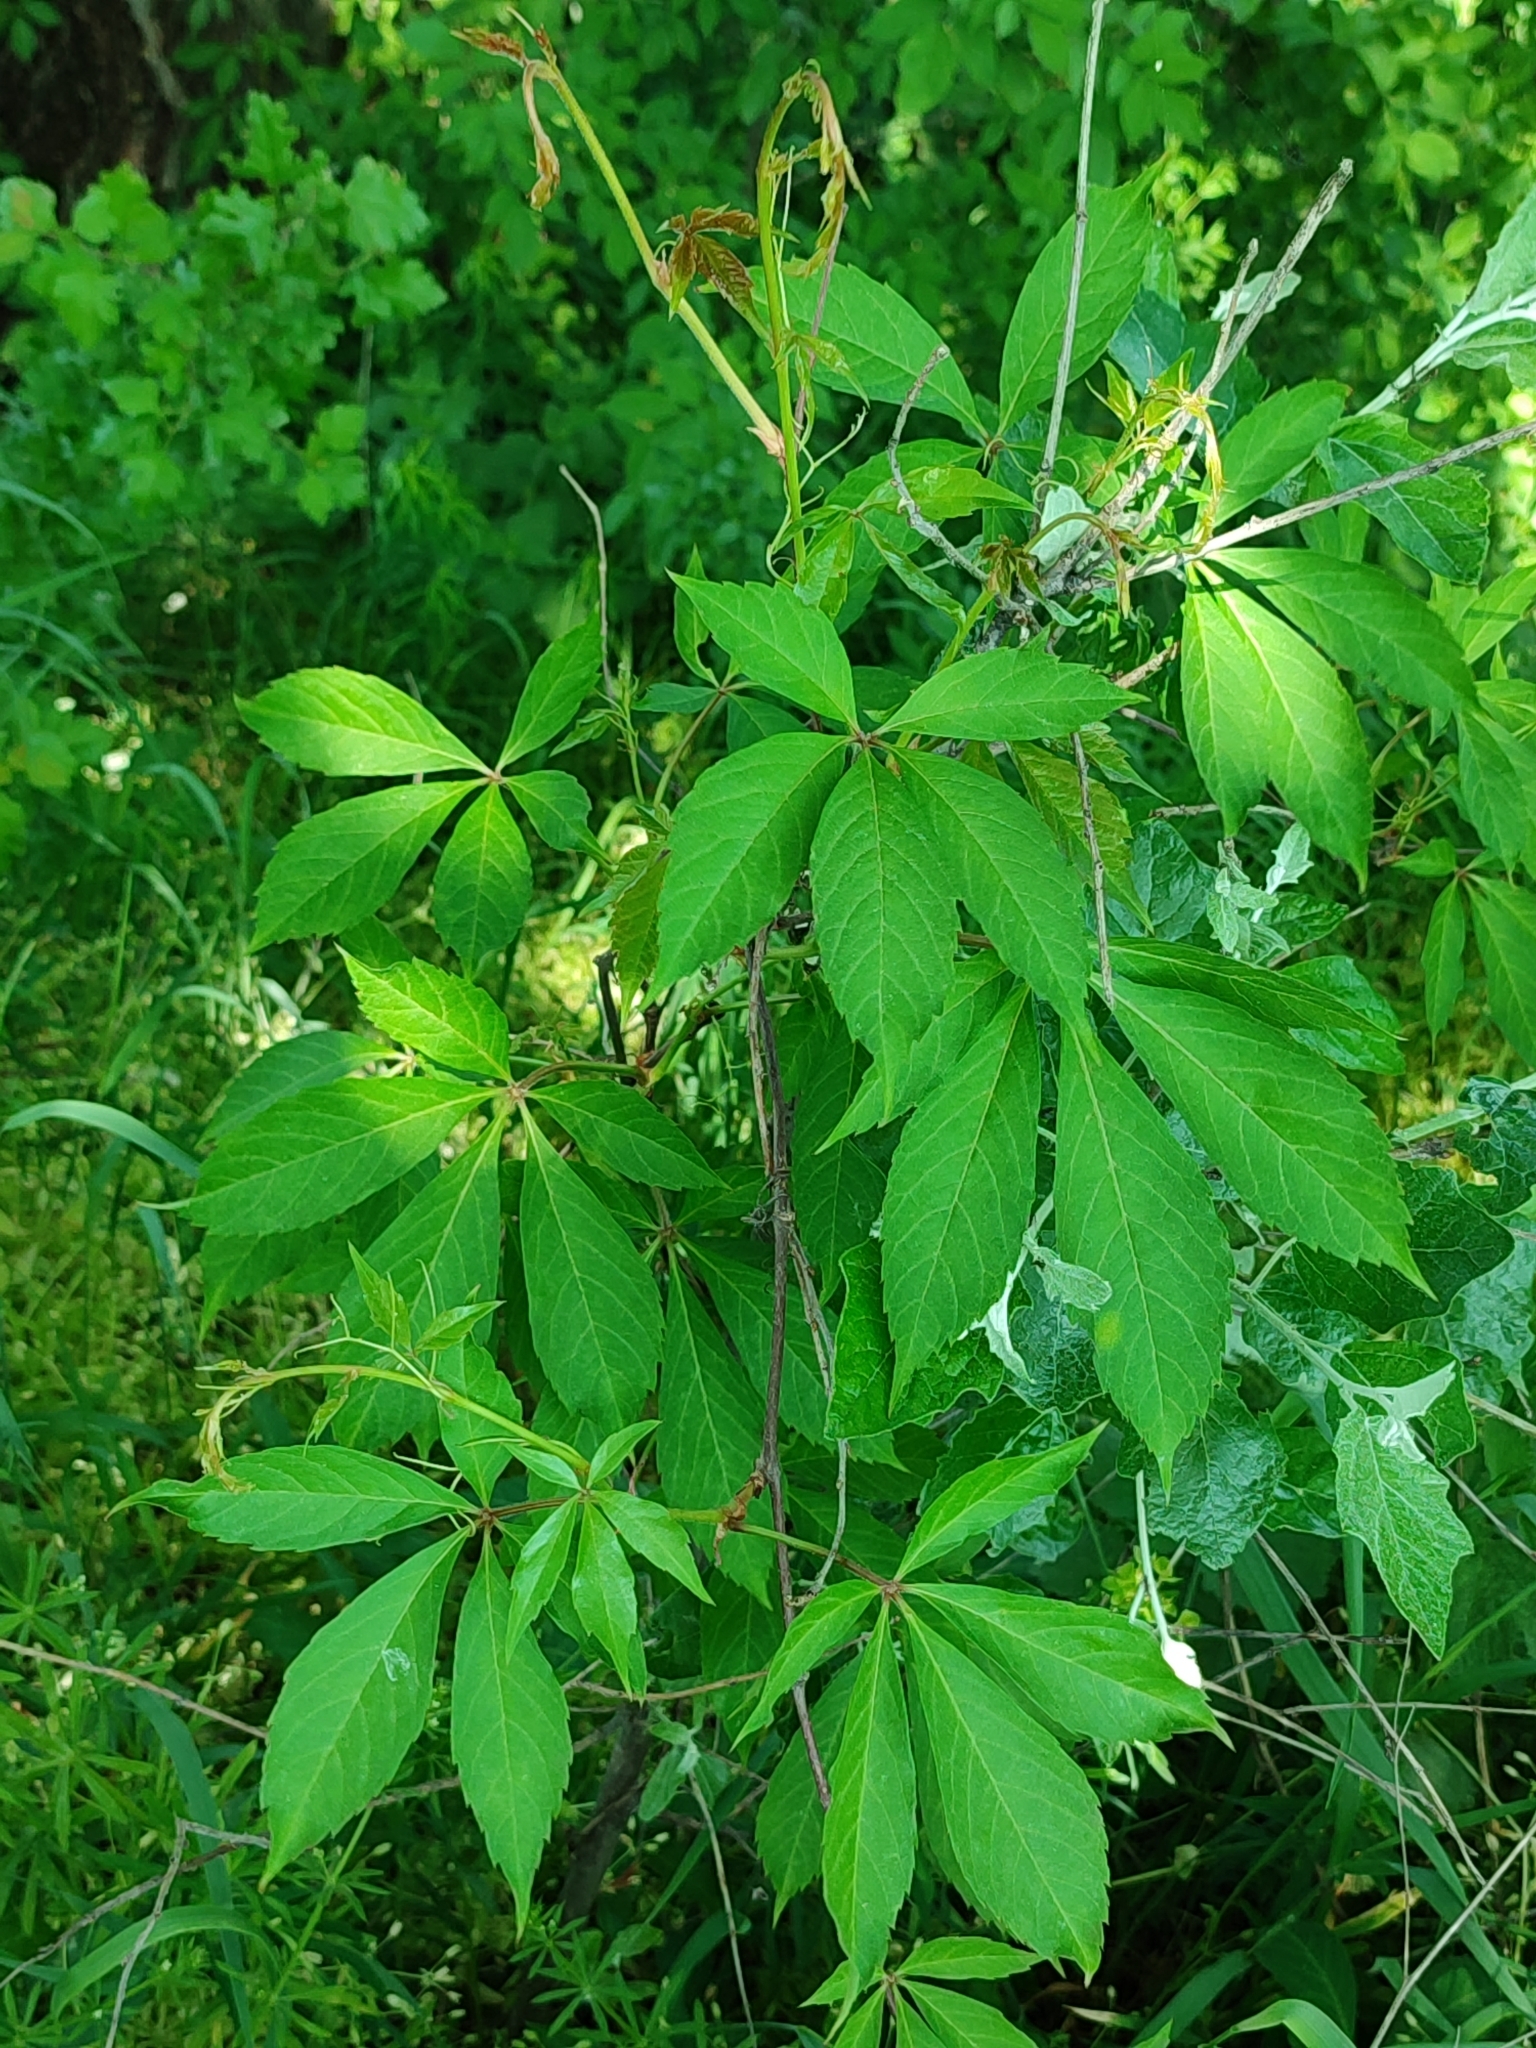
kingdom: Plantae
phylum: Tracheophyta
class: Magnoliopsida
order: Vitales
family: Vitaceae
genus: Parthenocissus
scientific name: Parthenocissus inserta
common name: False virginia-creeper
